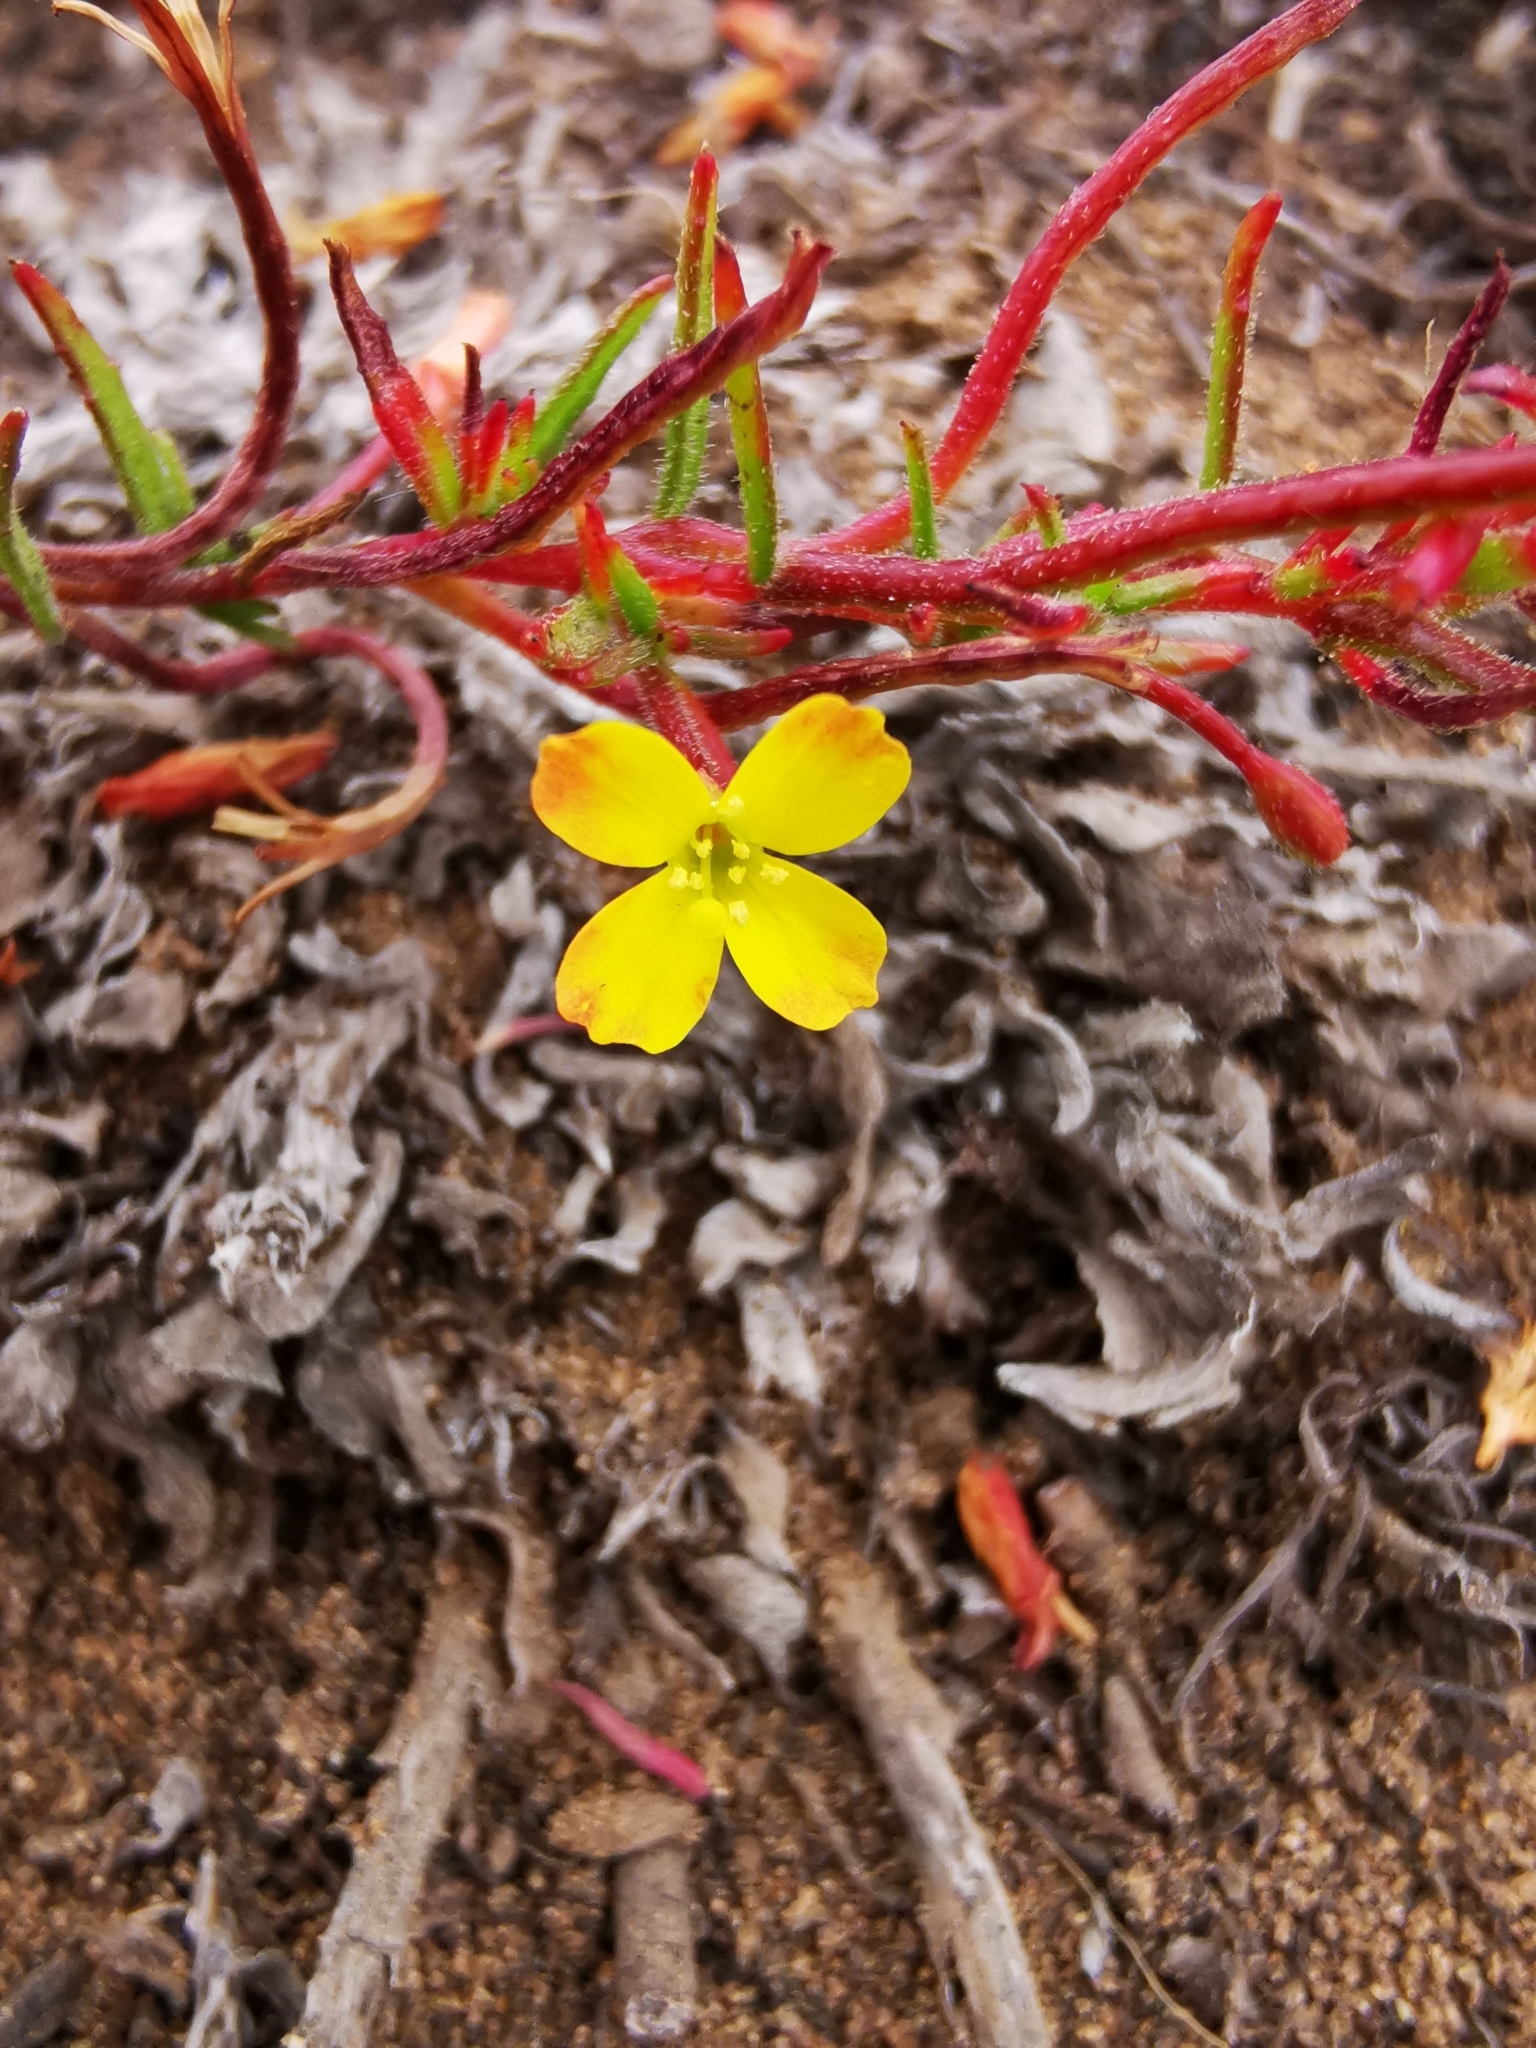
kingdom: Plantae
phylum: Tracheophyta
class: Magnoliopsida
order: Myrtales
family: Onagraceae
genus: Camissonia
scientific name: Camissonia dentata
